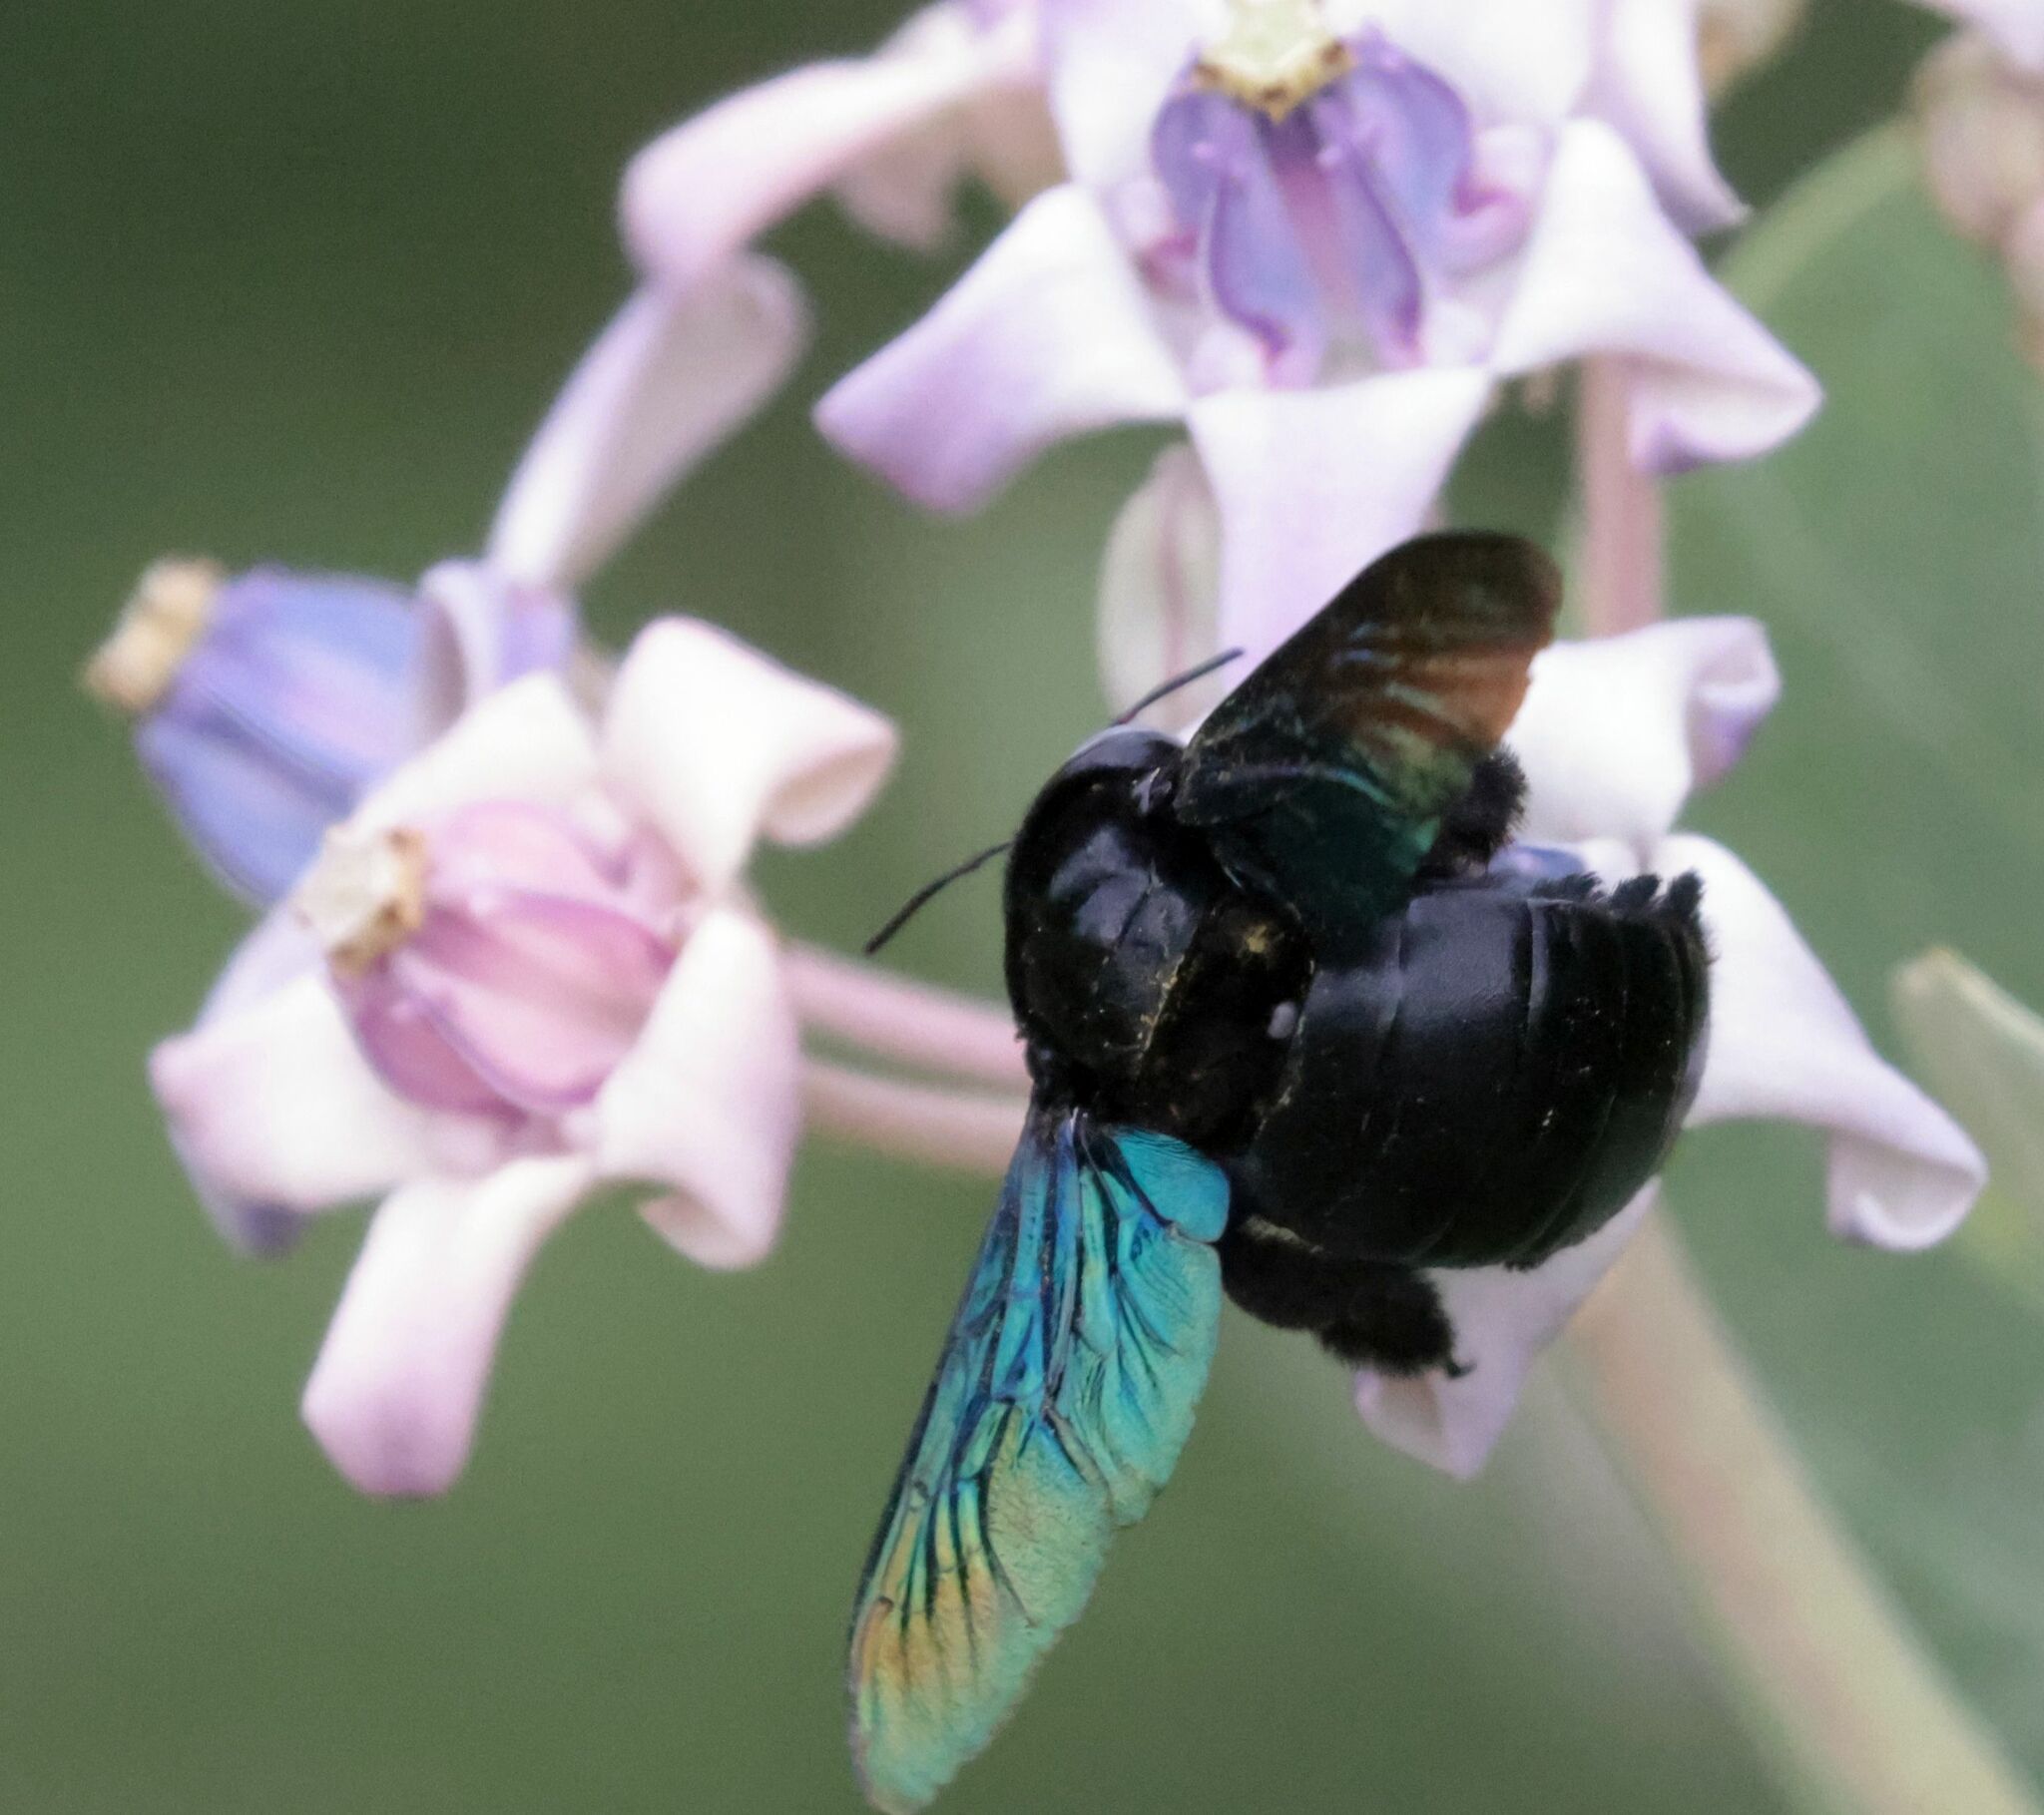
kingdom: Animalia
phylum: Arthropoda
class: Insecta
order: Hymenoptera
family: Apidae
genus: Xylocopa
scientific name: Xylocopa tenuiscapa
